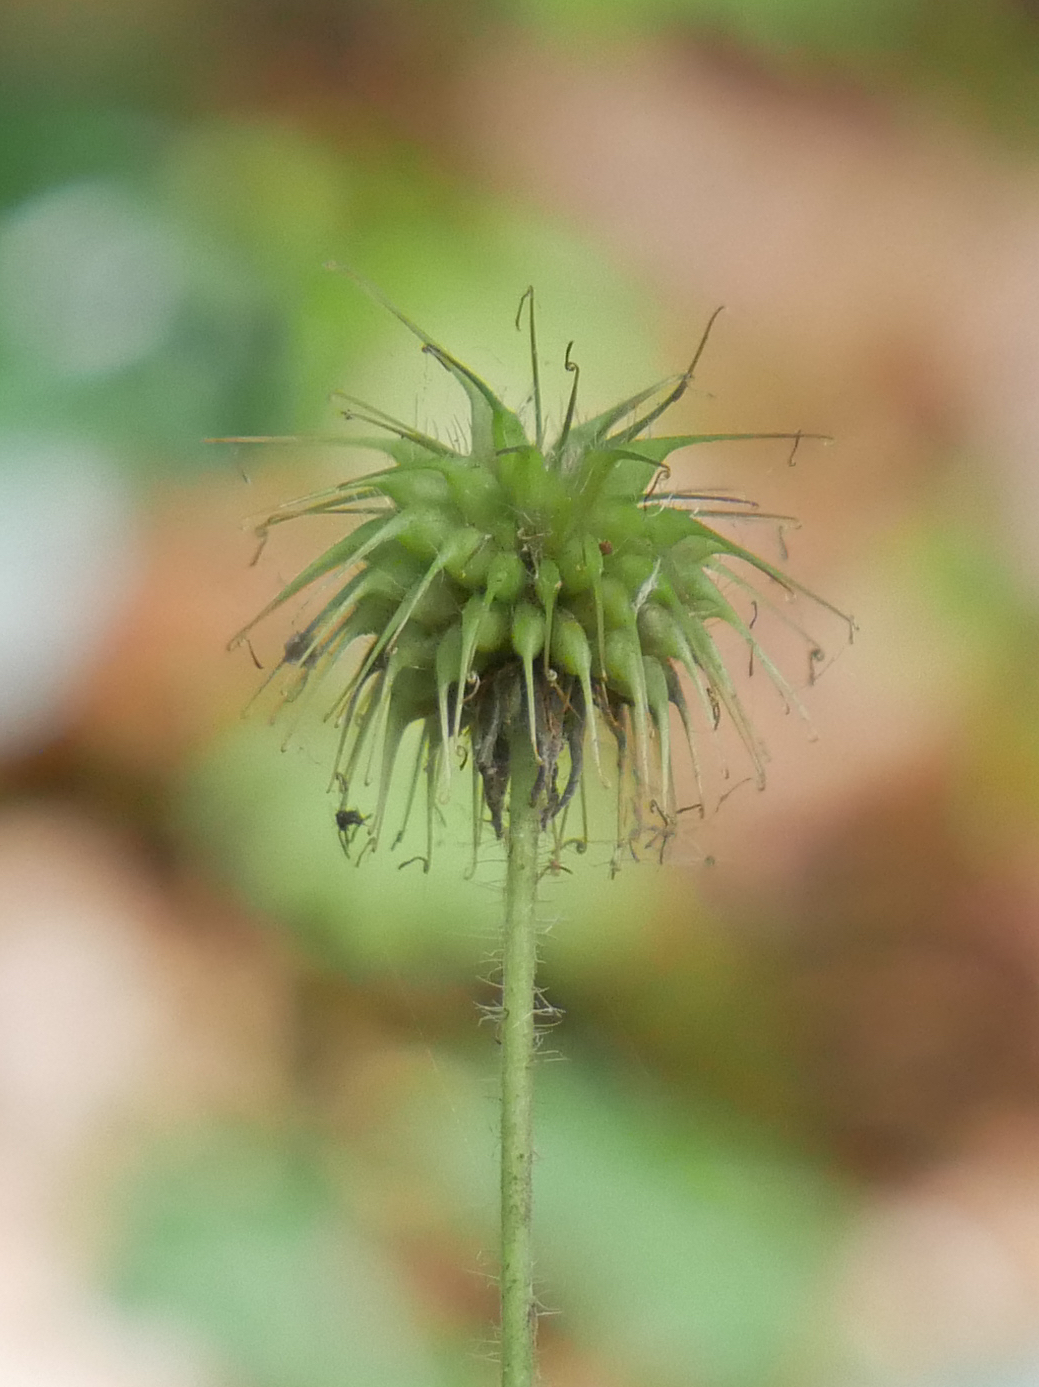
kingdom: Plantae
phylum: Tracheophyta
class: Magnoliopsida
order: Rosales
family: Rosaceae
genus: Geum
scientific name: Geum urbanum
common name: Wood avens
